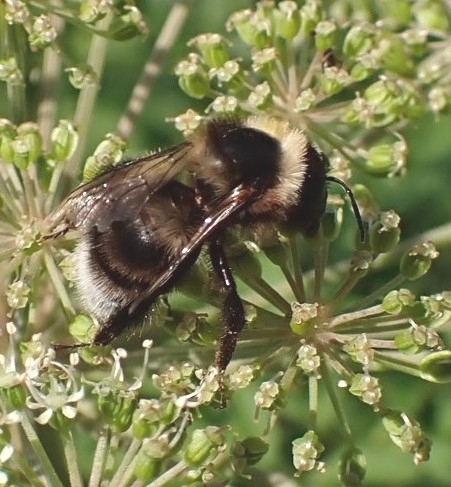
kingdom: Animalia
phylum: Arthropoda
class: Insecta
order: Hymenoptera
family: Apidae
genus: Bombus
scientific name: Bombus subterraneus
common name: Short-haired humble-bee
